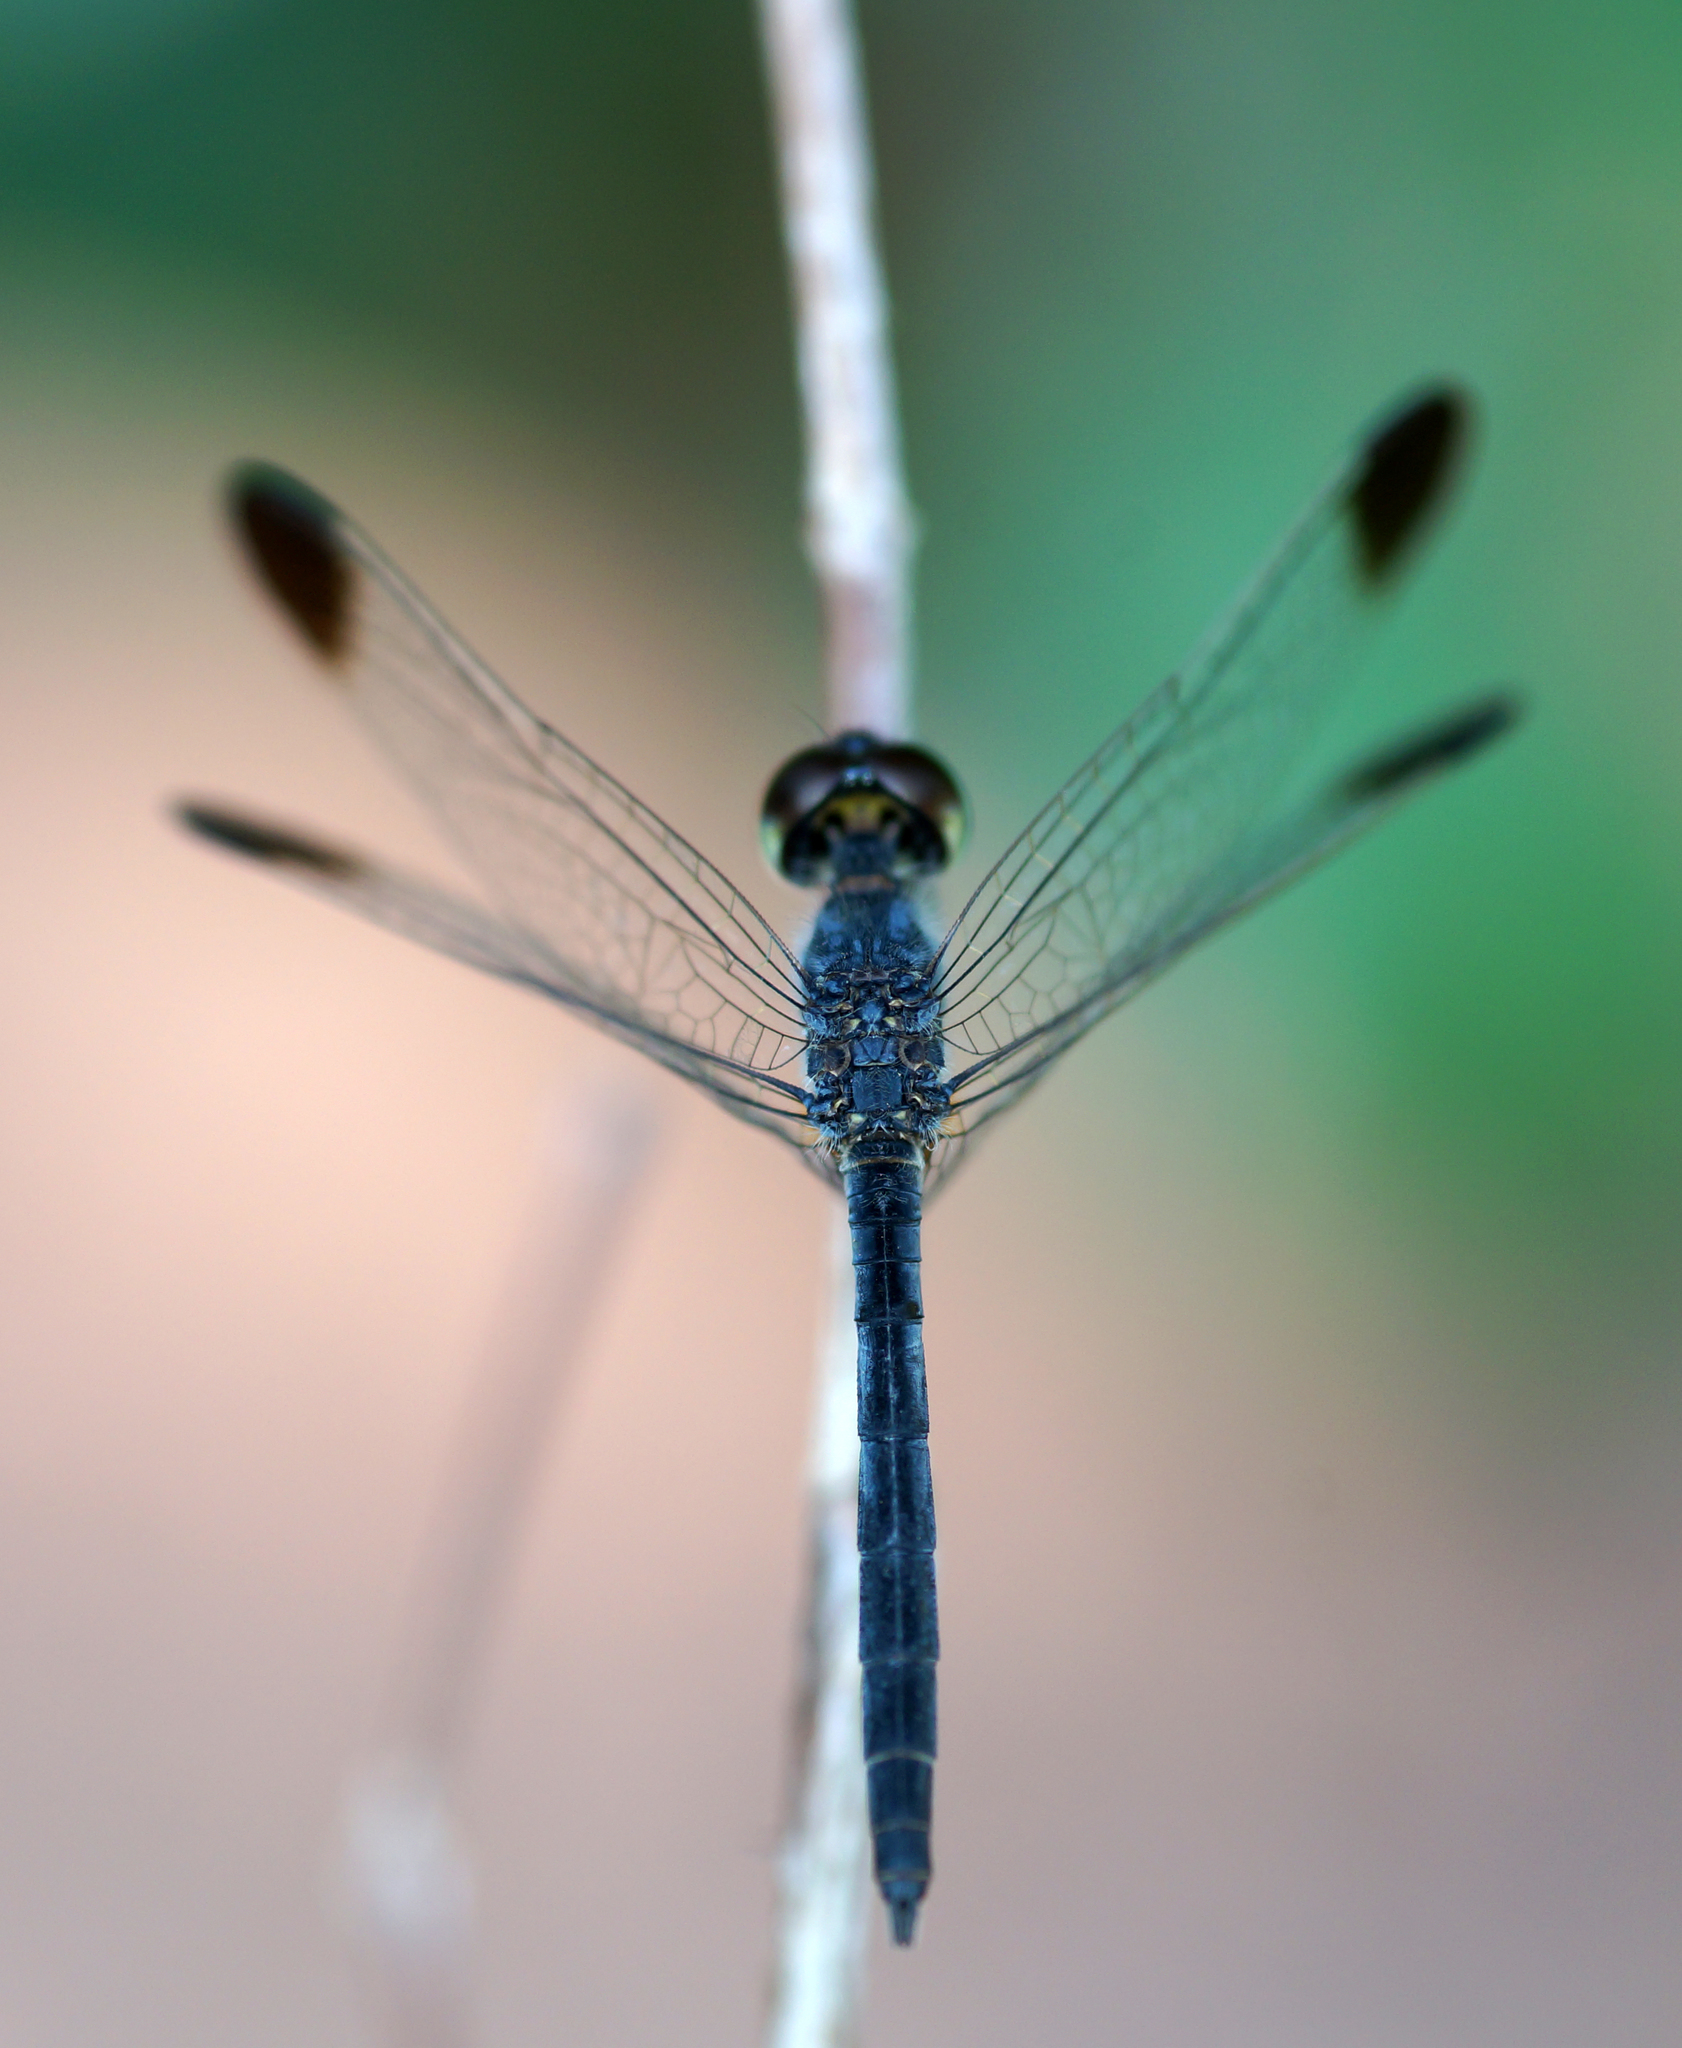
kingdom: Animalia
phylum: Arthropoda
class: Insecta
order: Odonata
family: Libellulidae
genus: Diplacodes
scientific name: Diplacodes nebulosa
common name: Black-tipped percher
